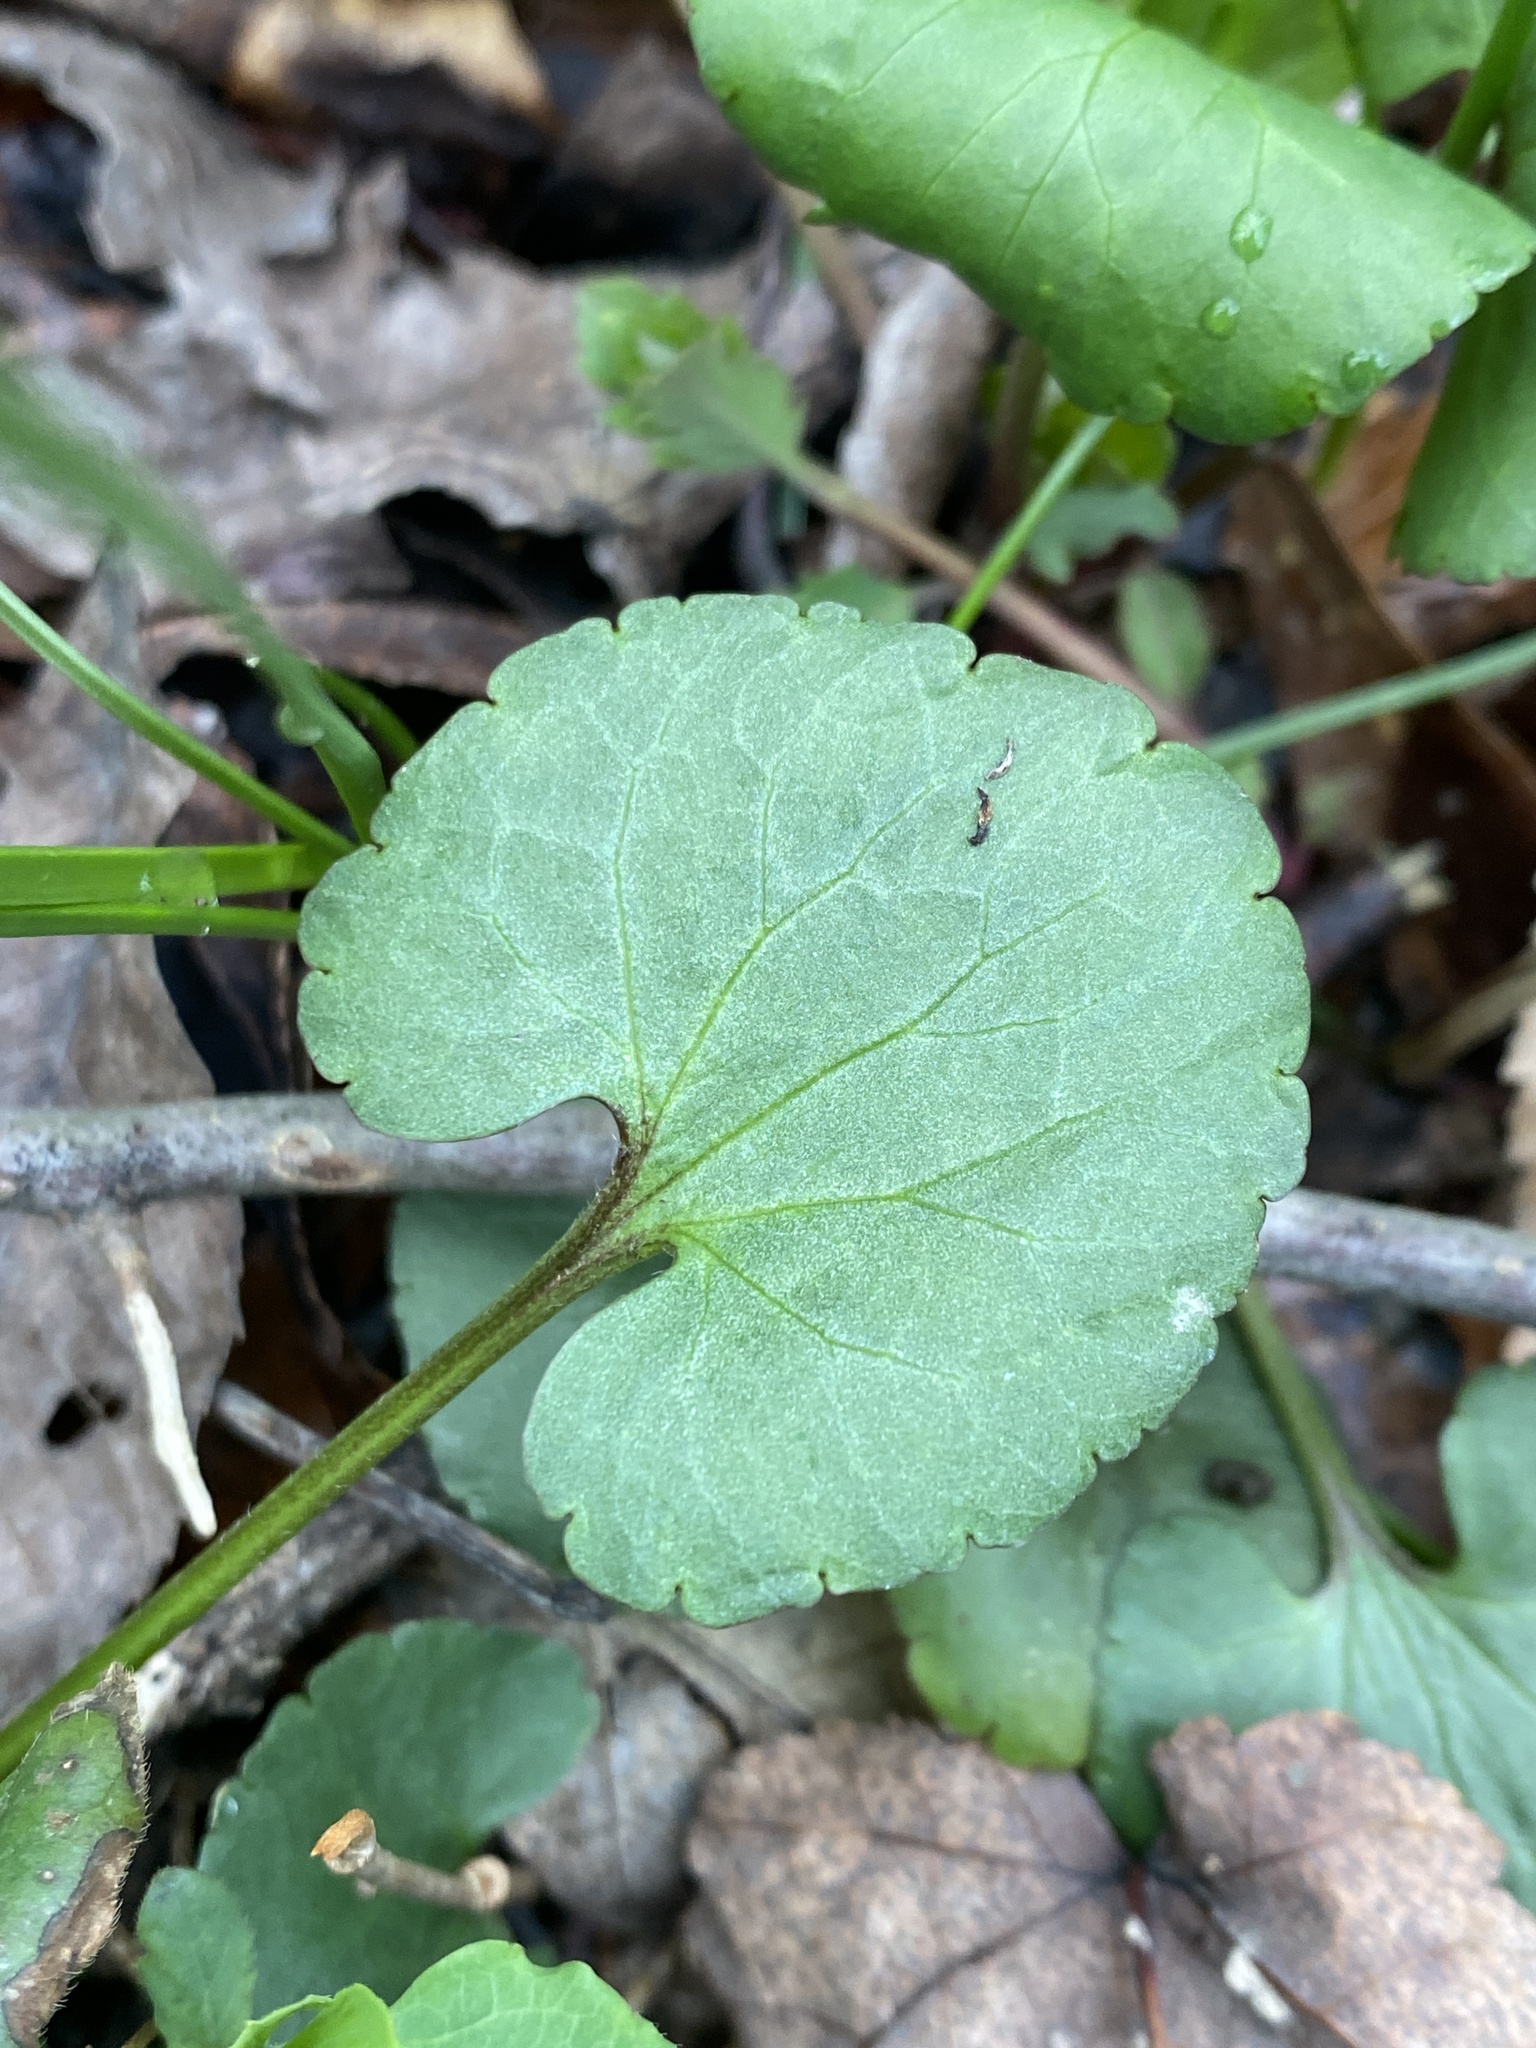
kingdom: Plantae
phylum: Tracheophyta
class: Magnoliopsida
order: Ranunculales
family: Ranunculaceae
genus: Ranunculus
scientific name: Ranunculus abortivus
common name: Early wood buttercup
